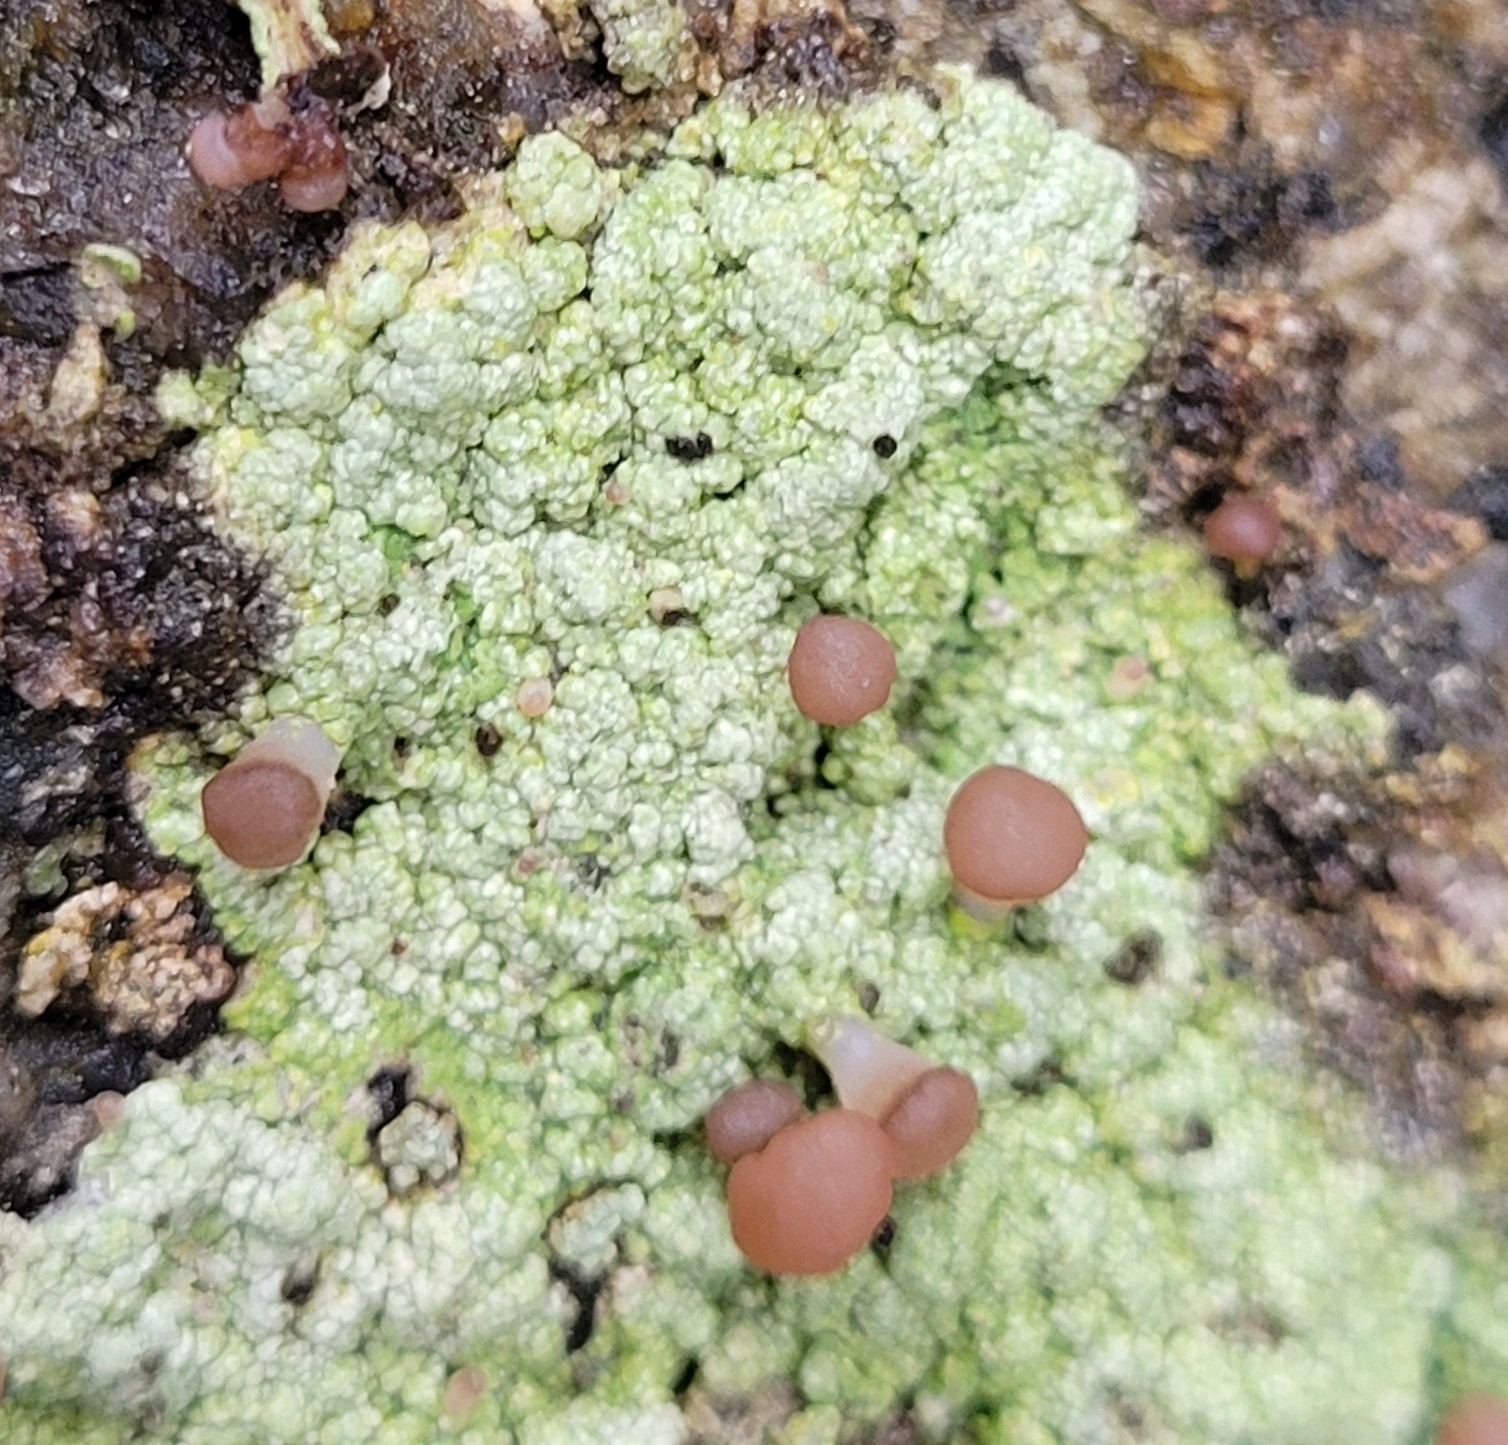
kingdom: Fungi
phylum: Ascomycota
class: Lecanoromycetes
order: Baeomycetales
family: Baeomycetaceae
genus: Baeomyces
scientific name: Baeomyces rufus
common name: Brown beret lichen
